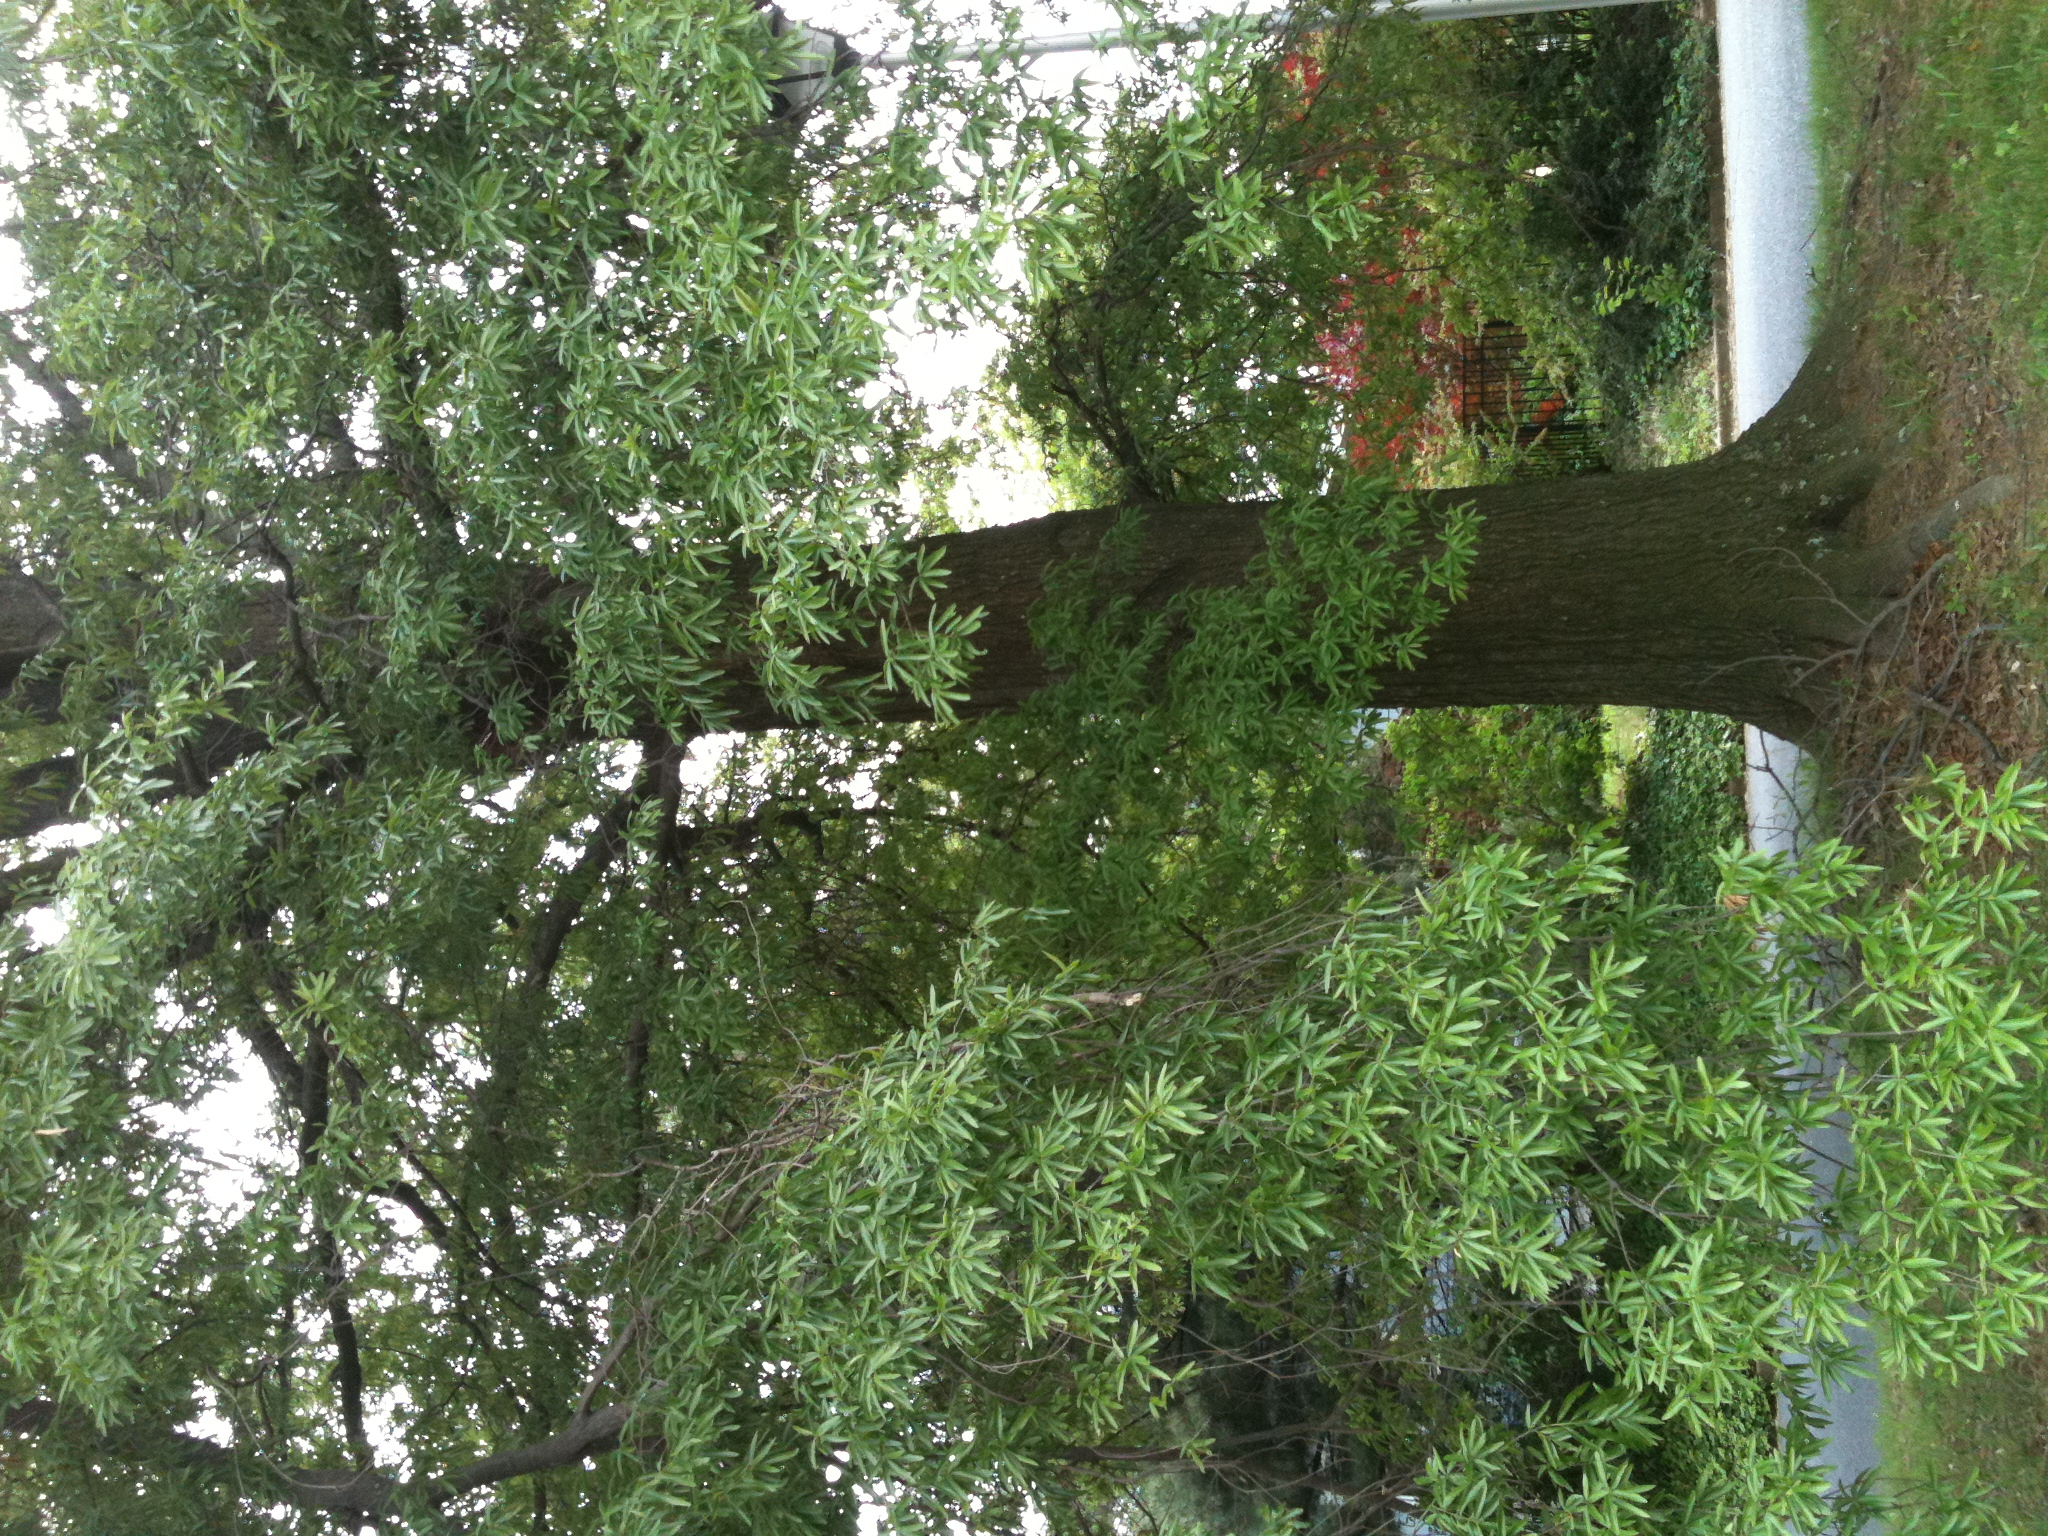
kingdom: Plantae
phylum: Tracheophyta
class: Magnoliopsida
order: Fagales
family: Fagaceae
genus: Quercus
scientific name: Quercus phellos
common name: Willow oak
